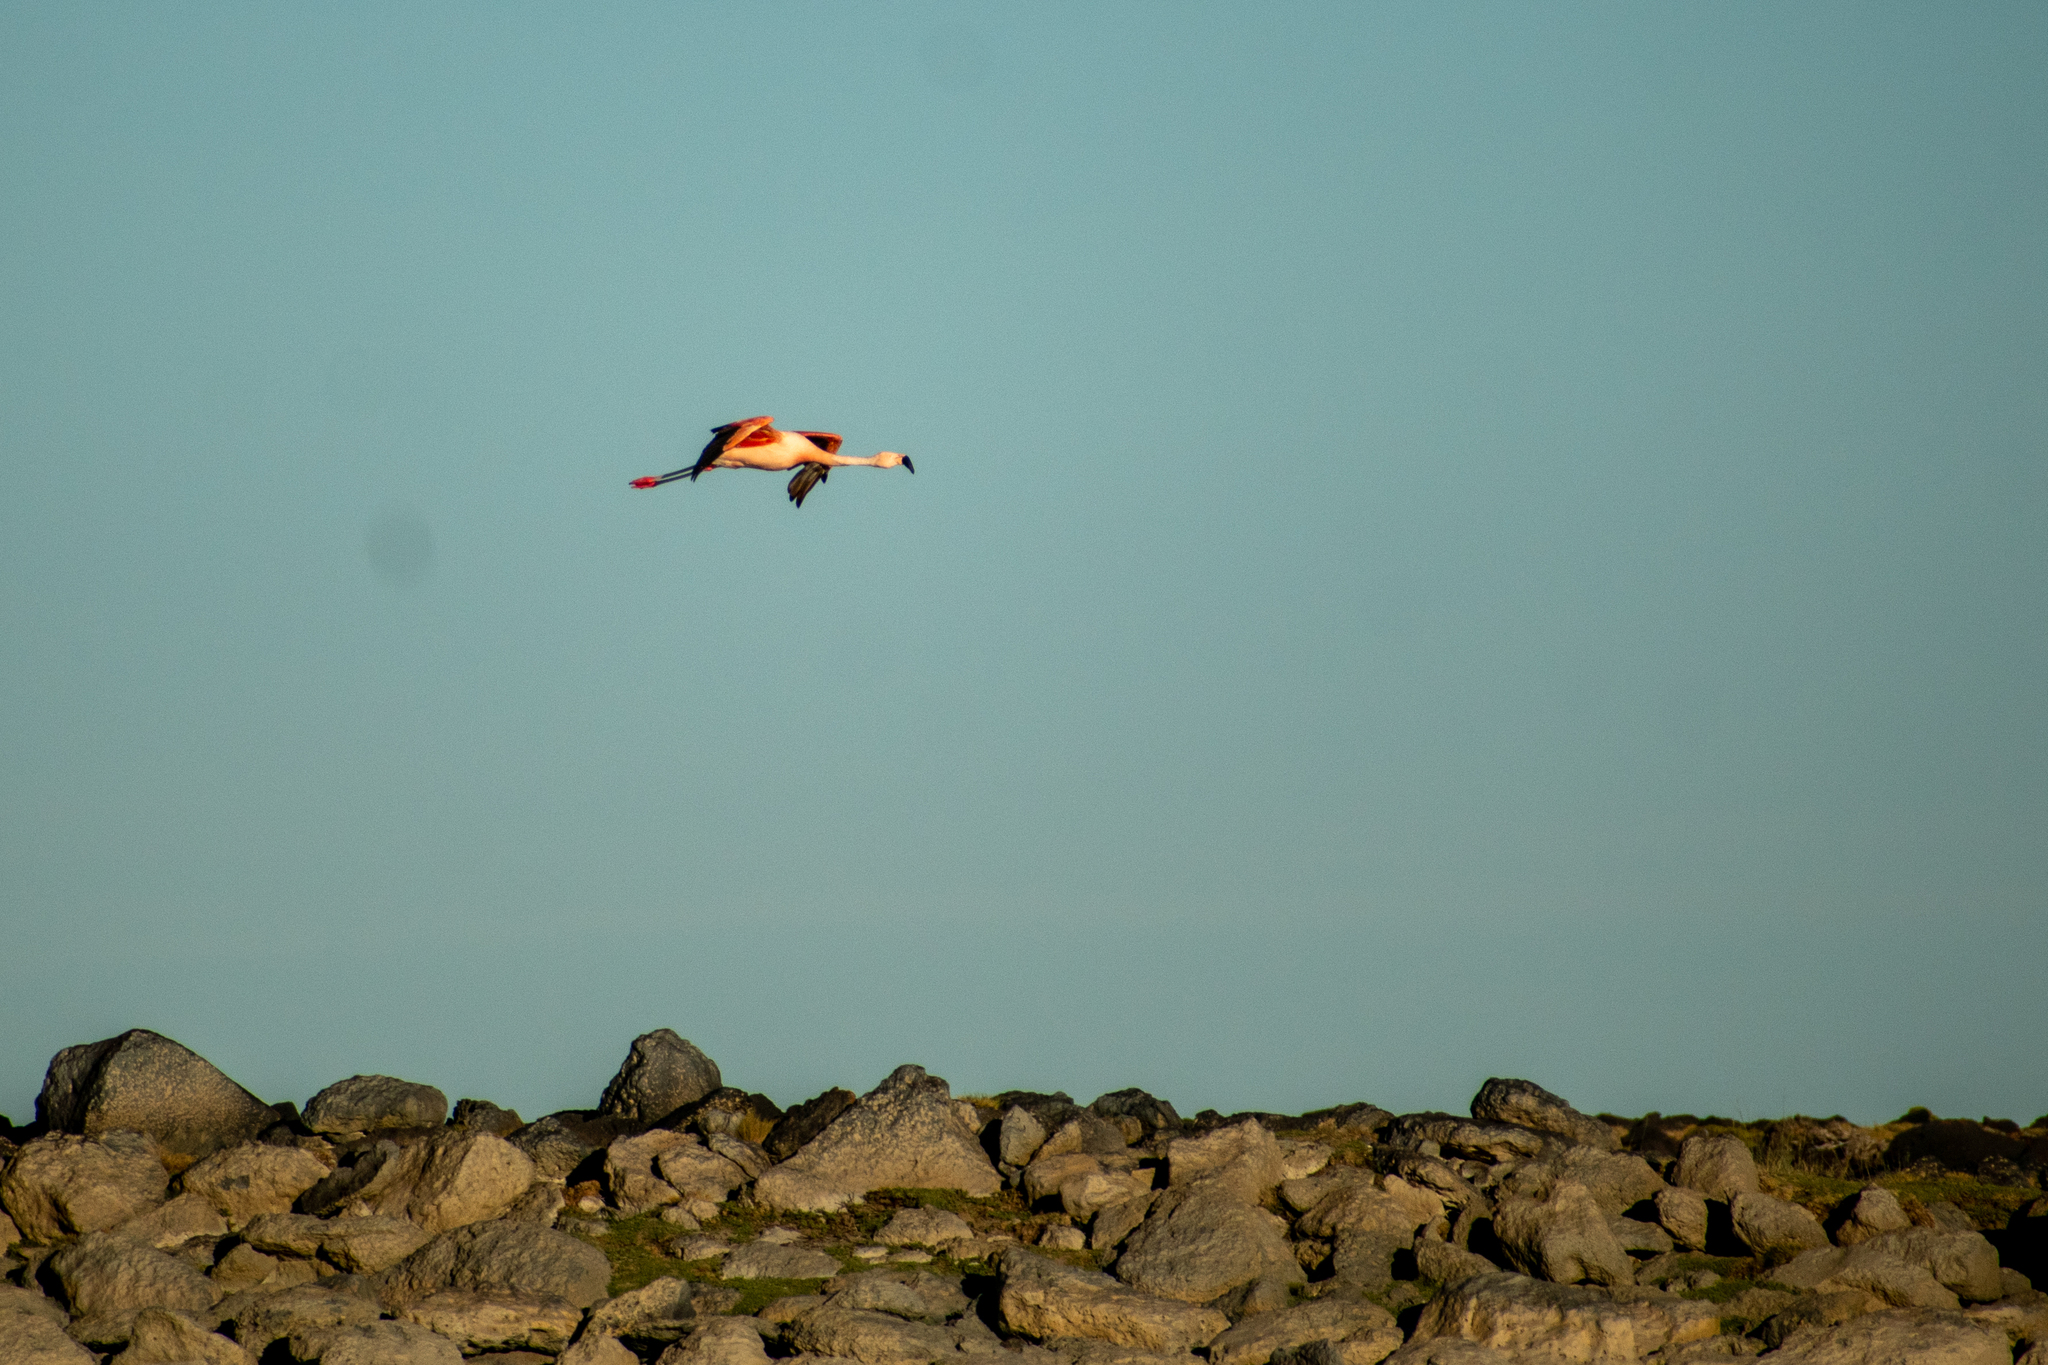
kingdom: Animalia
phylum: Chordata
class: Aves
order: Phoenicopteriformes
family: Phoenicopteridae
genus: Phoenicopterus
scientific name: Phoenicopterus chilensis
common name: Chilean flamingo
